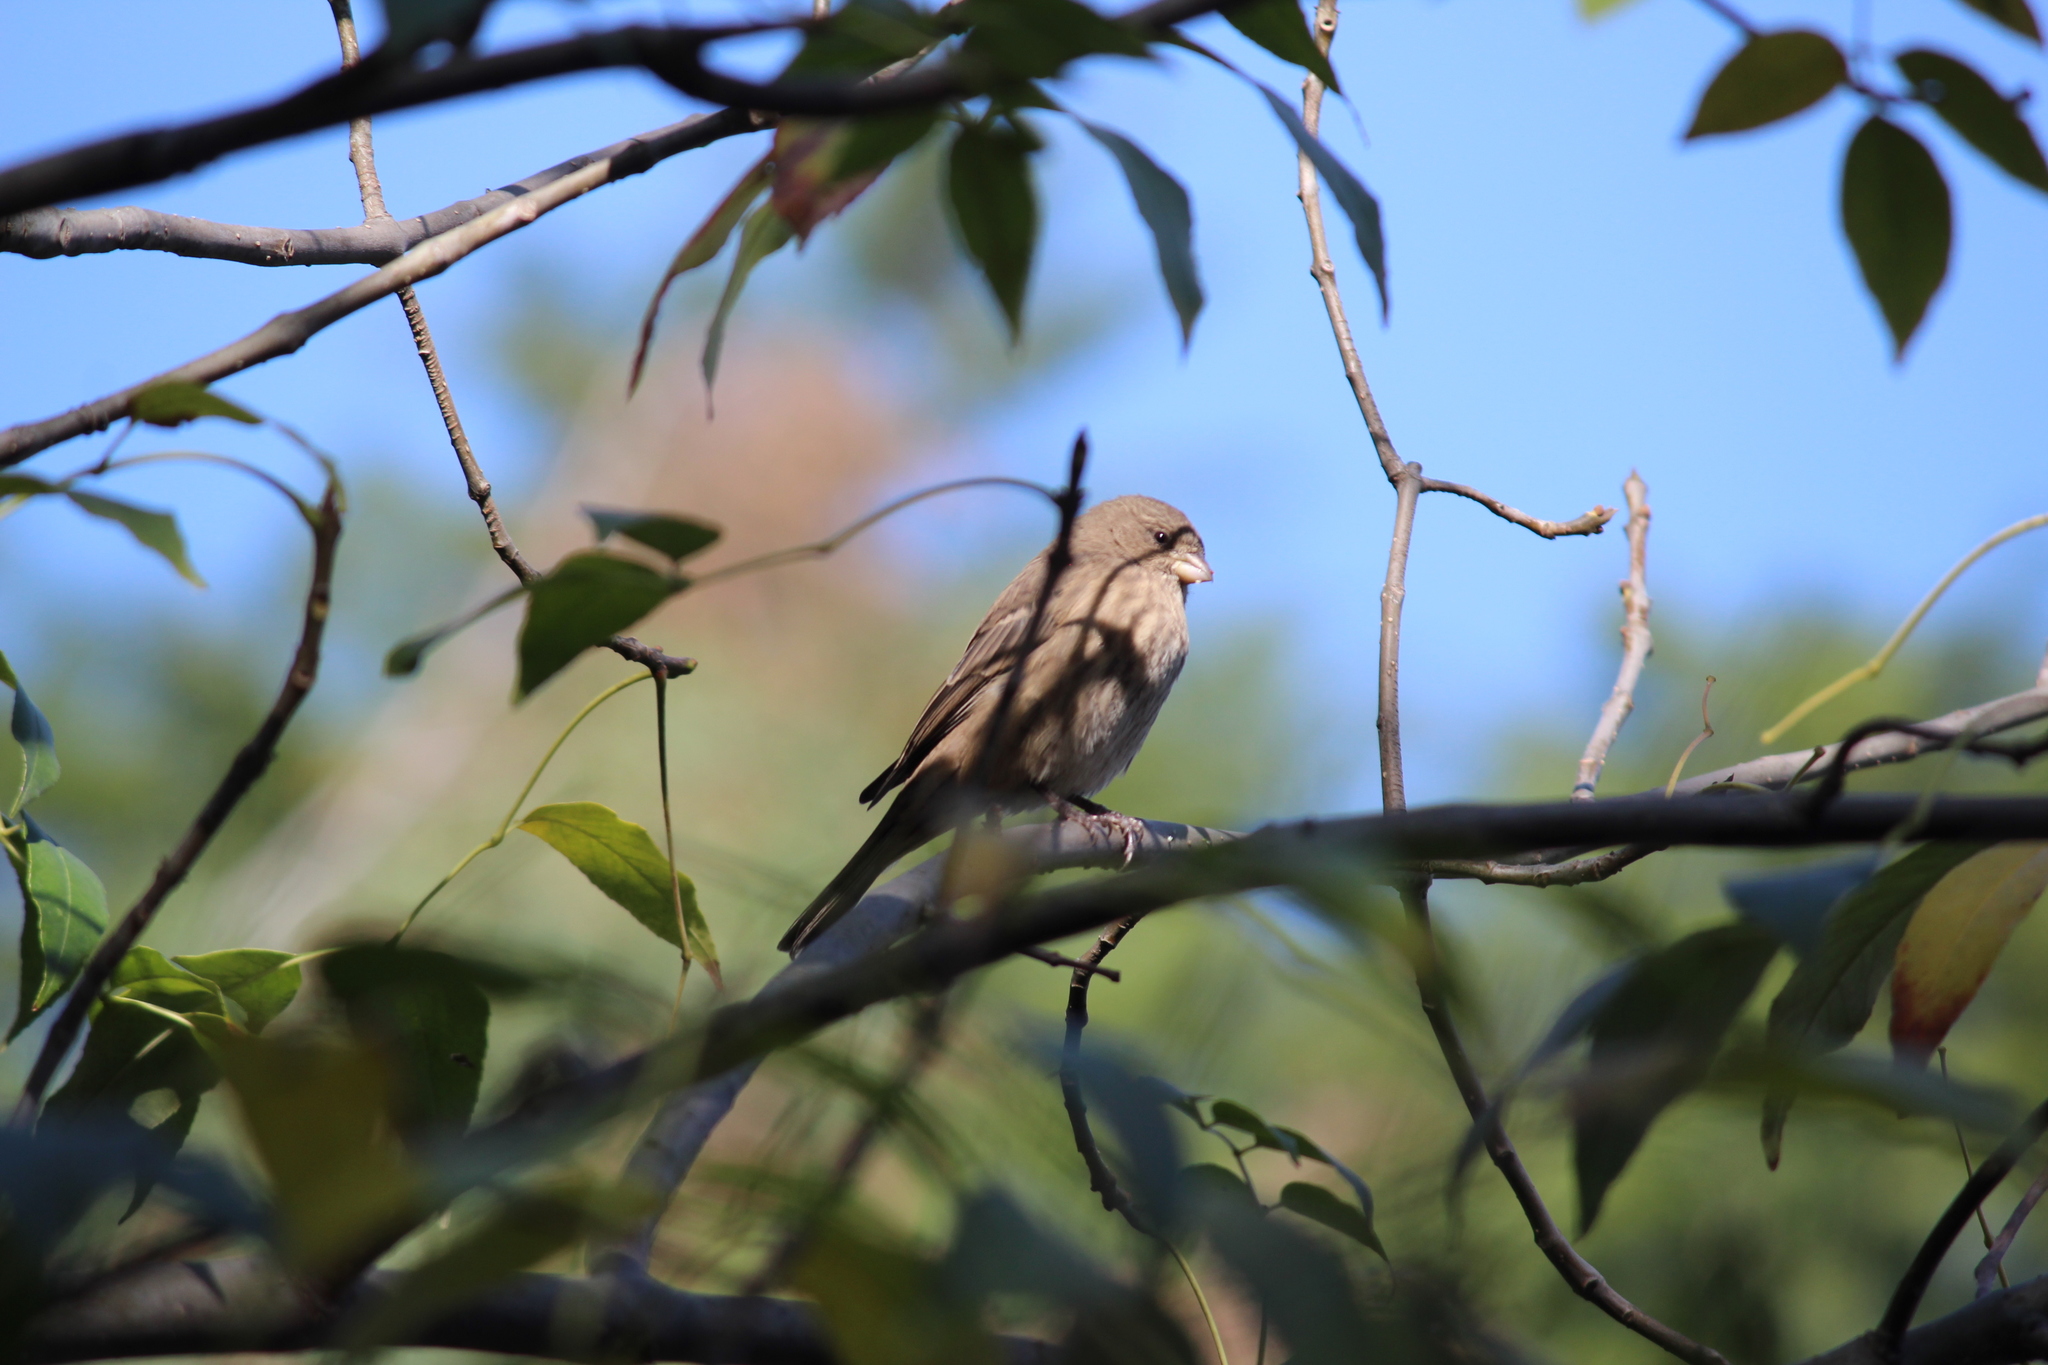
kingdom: Animalia
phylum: Chordata
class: Aves
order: Passeriformes
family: Fringillidae
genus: Haemorhous
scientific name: Haemorhous mexicanus
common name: House finch
